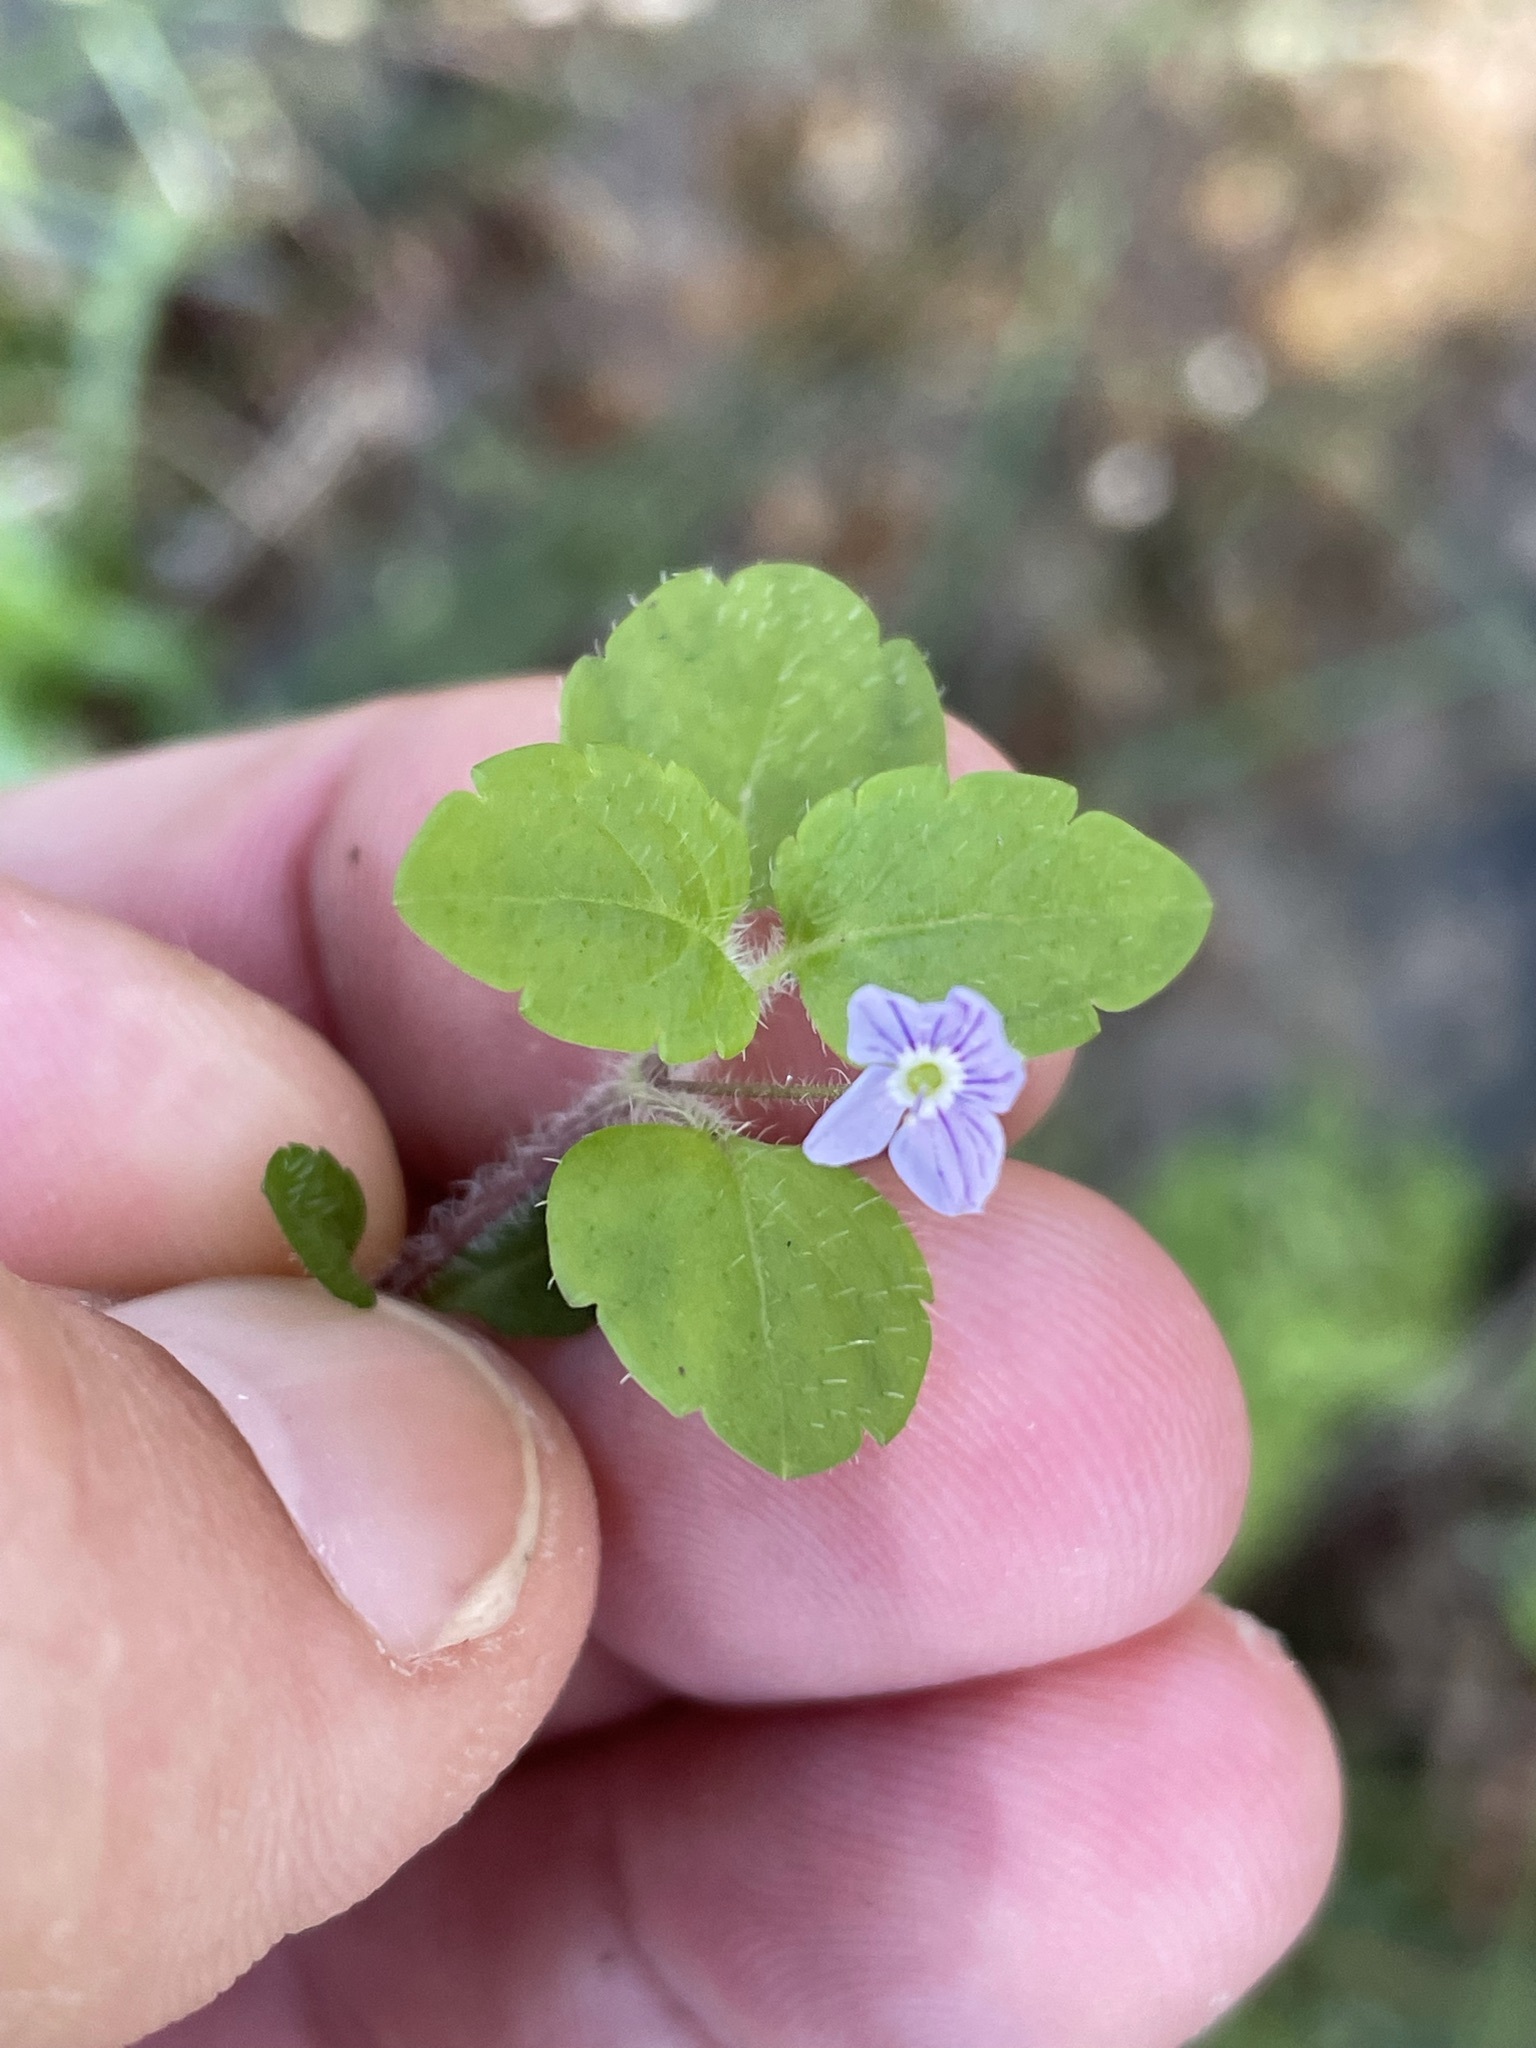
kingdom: Plantae
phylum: Tracheophyta
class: Magnoliopsida
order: Lamiales
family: Plantaginaceae
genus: Veronica
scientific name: Veronica montana
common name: Wood speedwell
